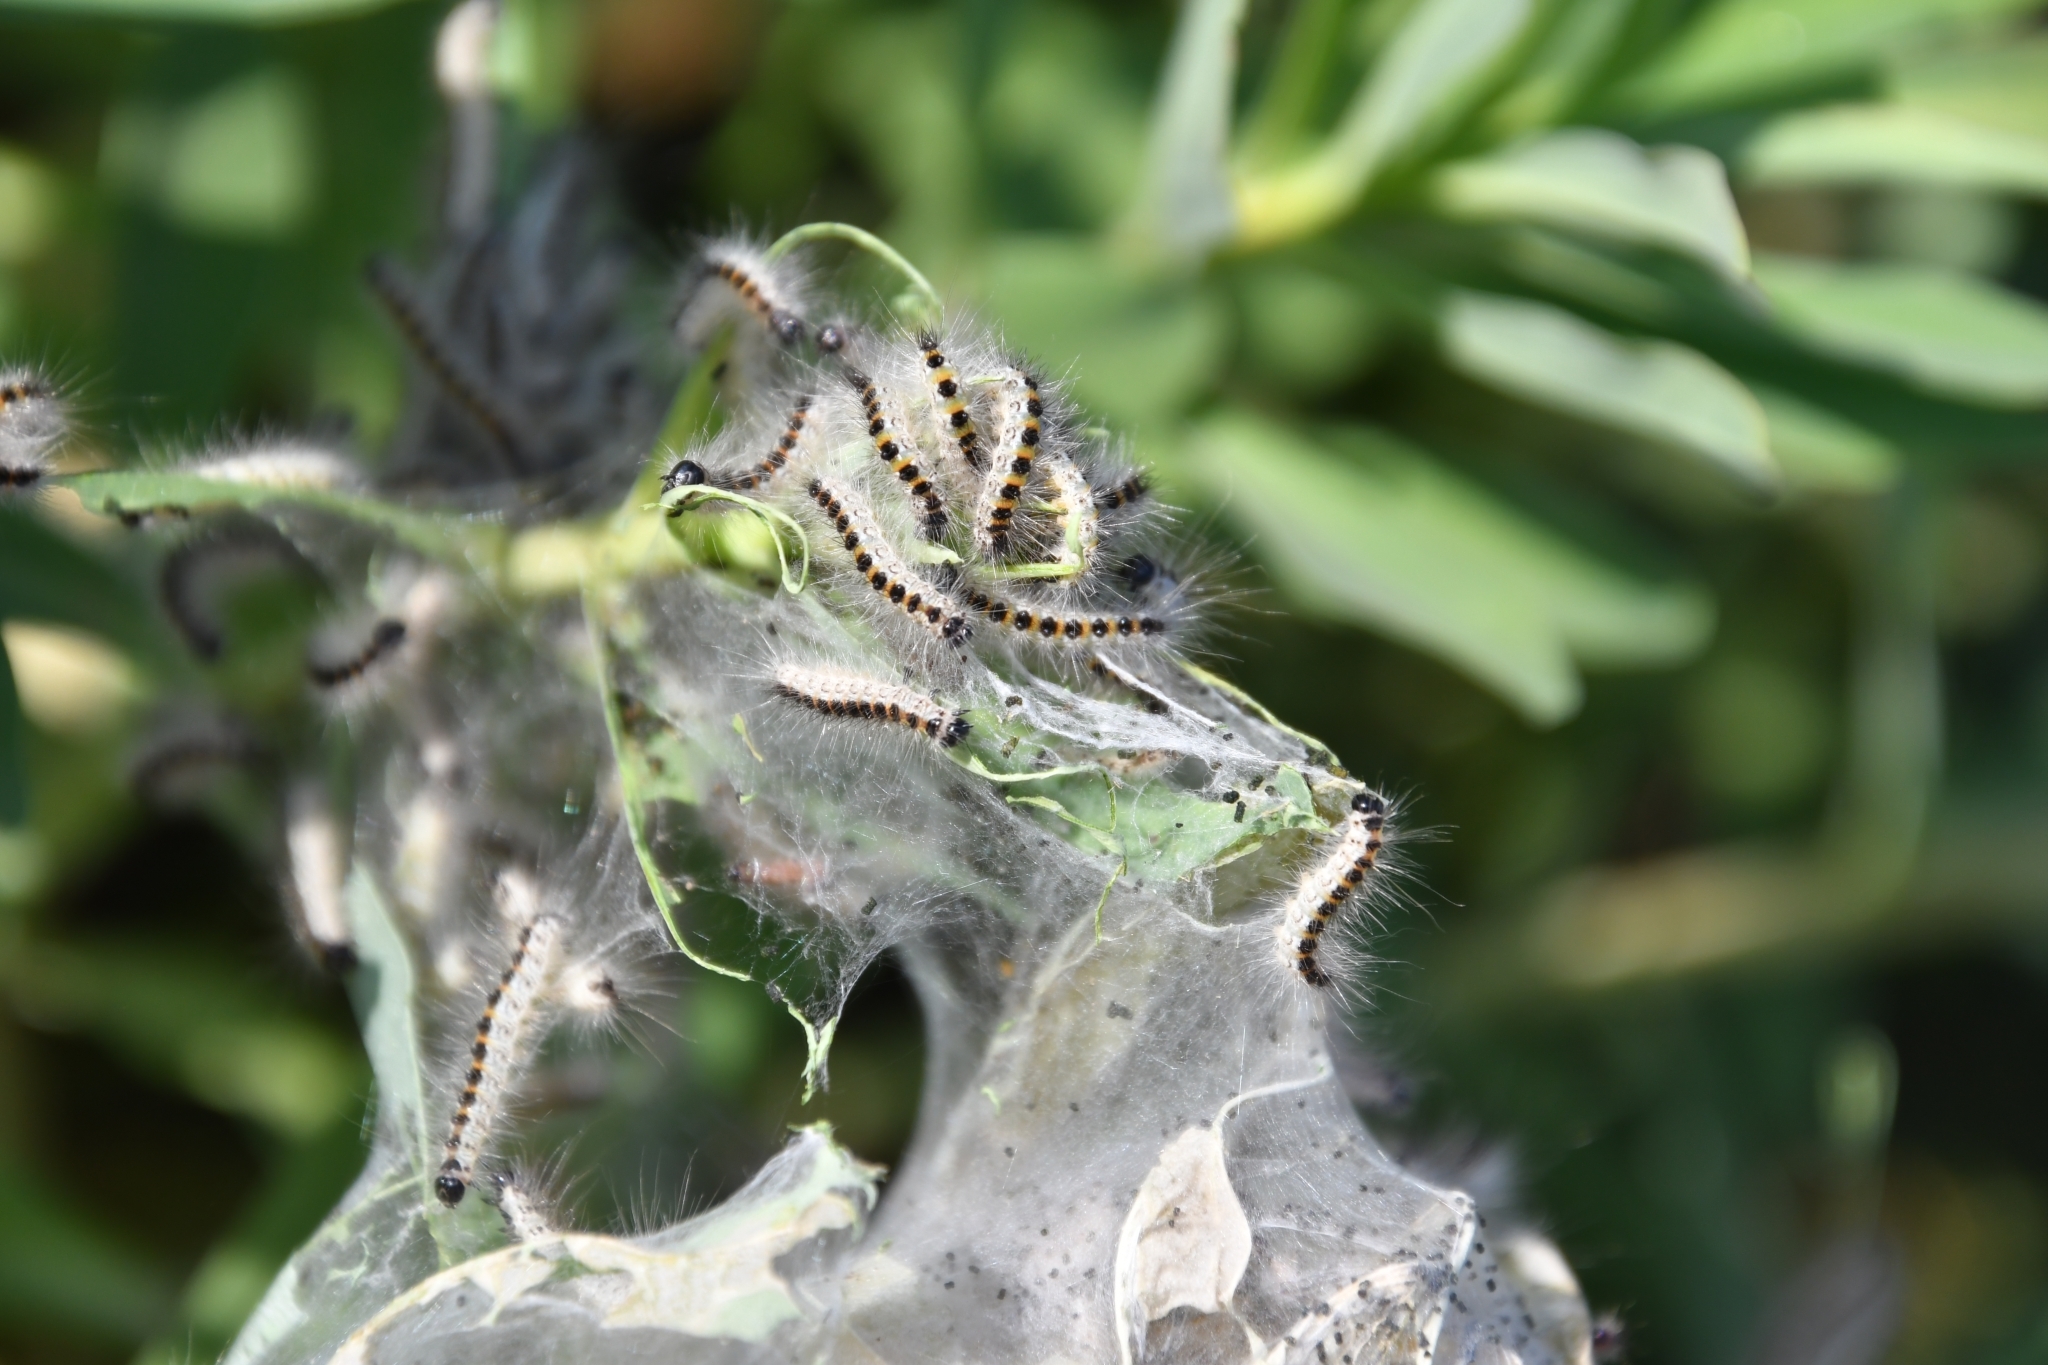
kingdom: Animalia
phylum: Arthropoda
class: Insecta
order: Lepidoptera
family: Noctuidae
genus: Oxicesta
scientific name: Oxicesta geographica
